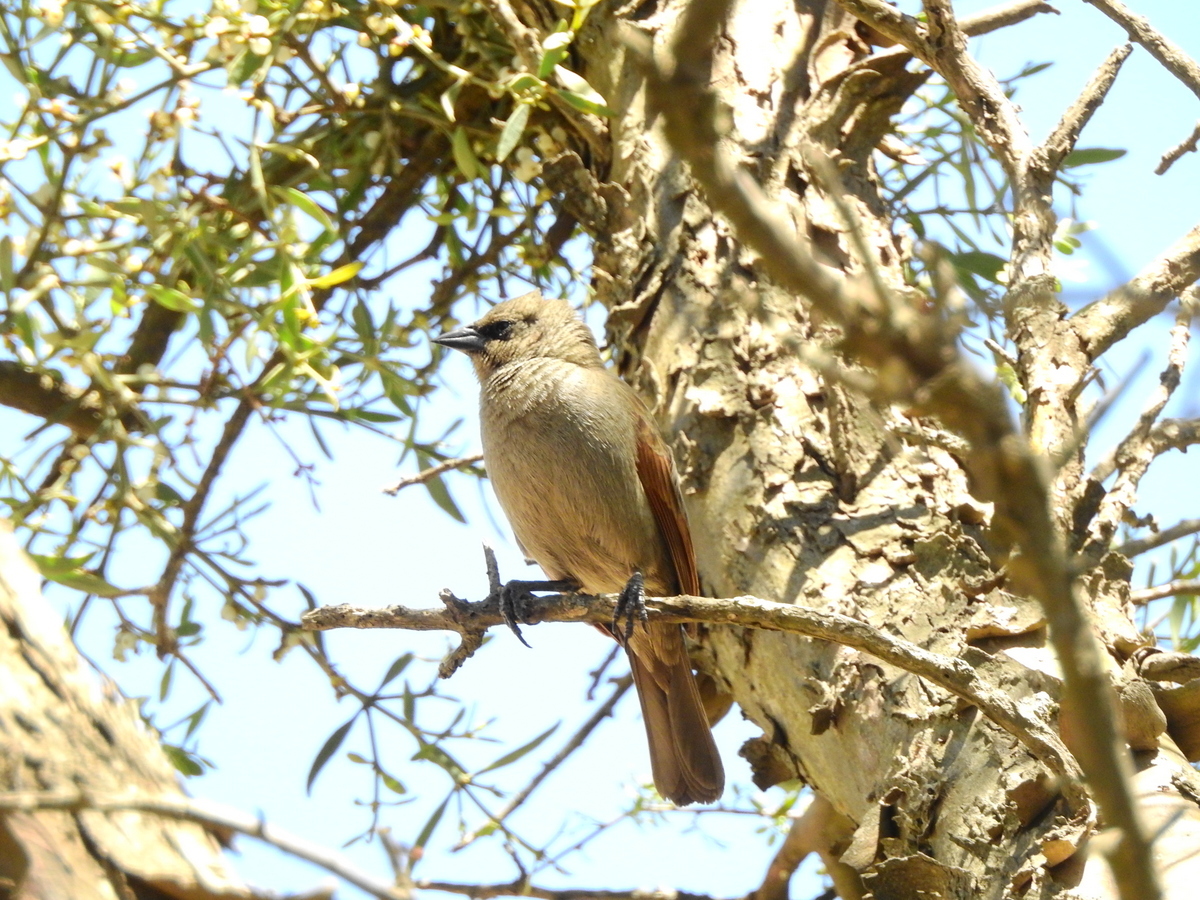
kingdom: Animalia
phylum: Chordata
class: Aves
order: Passeriformes
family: Icteridae
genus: Agelaioides
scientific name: Agelaioides badius
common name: Baywing
